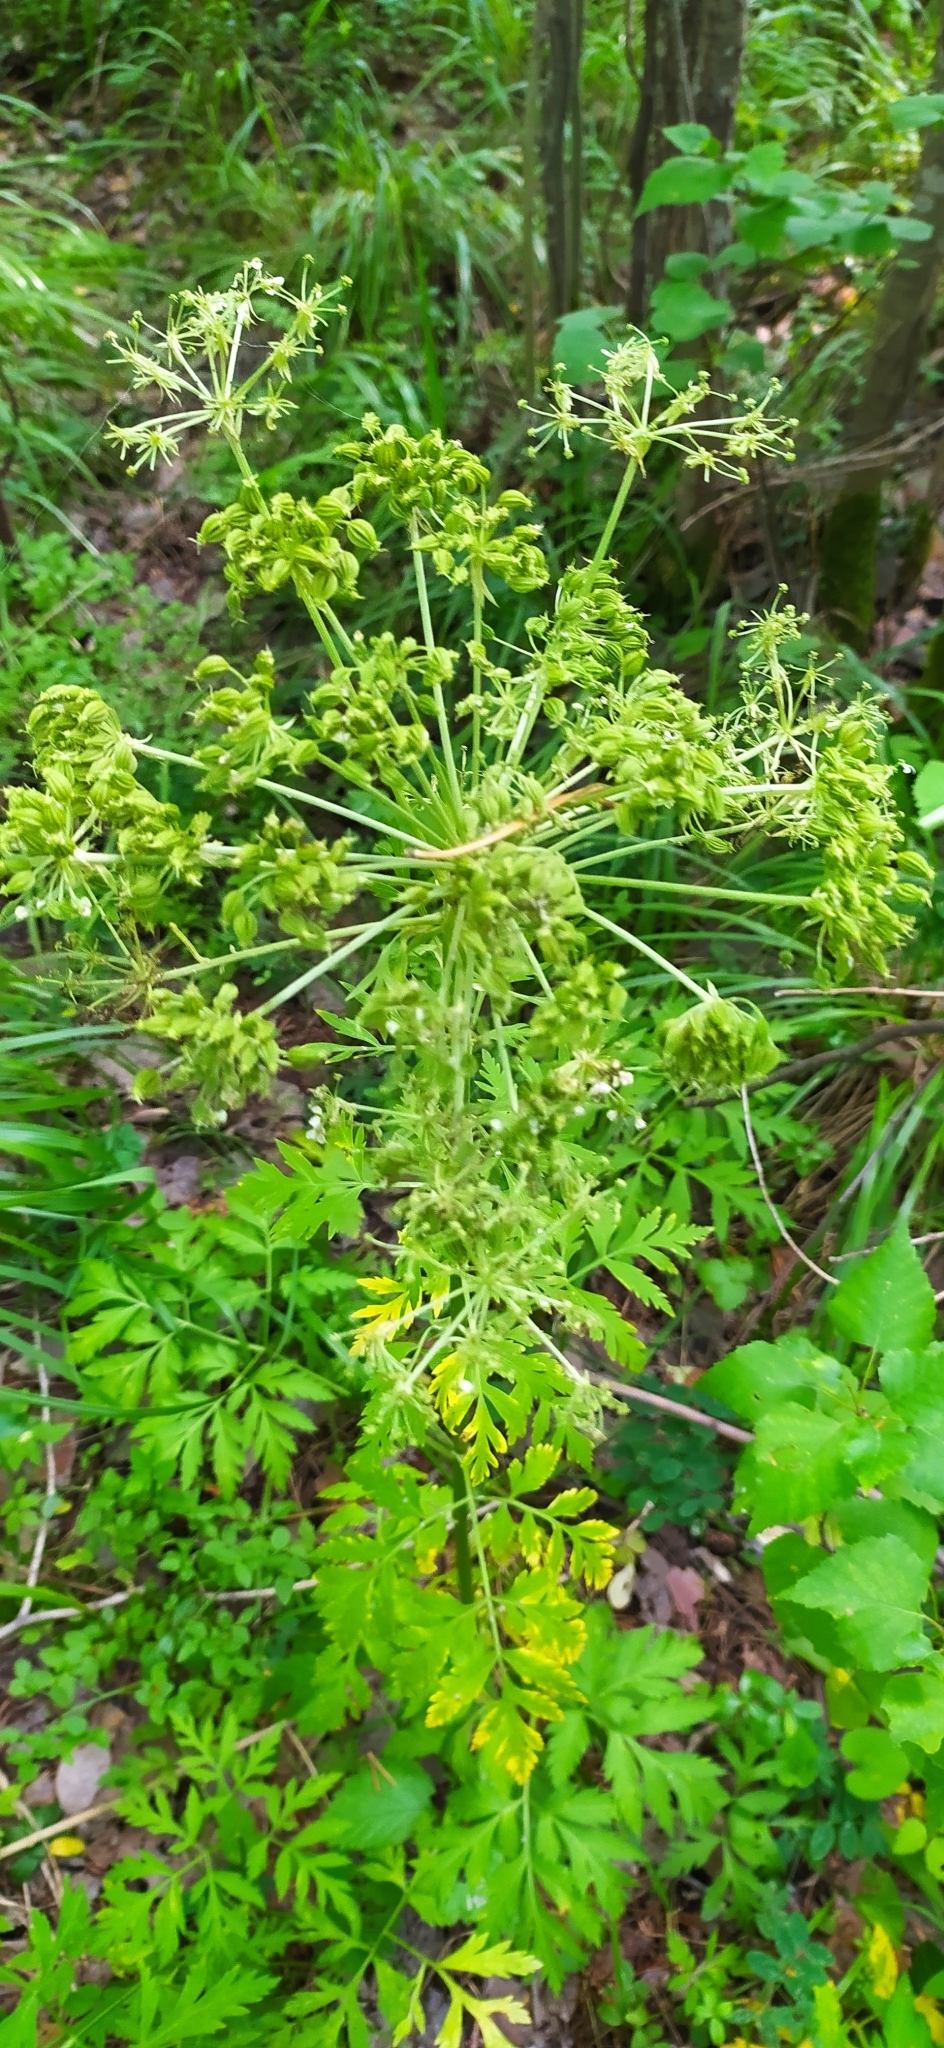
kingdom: Plantae
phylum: Tracheophyta
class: Magnoliopsida
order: Apiales
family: Apiaceae
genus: Pleurospermum
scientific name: Pleurospermum uralense
